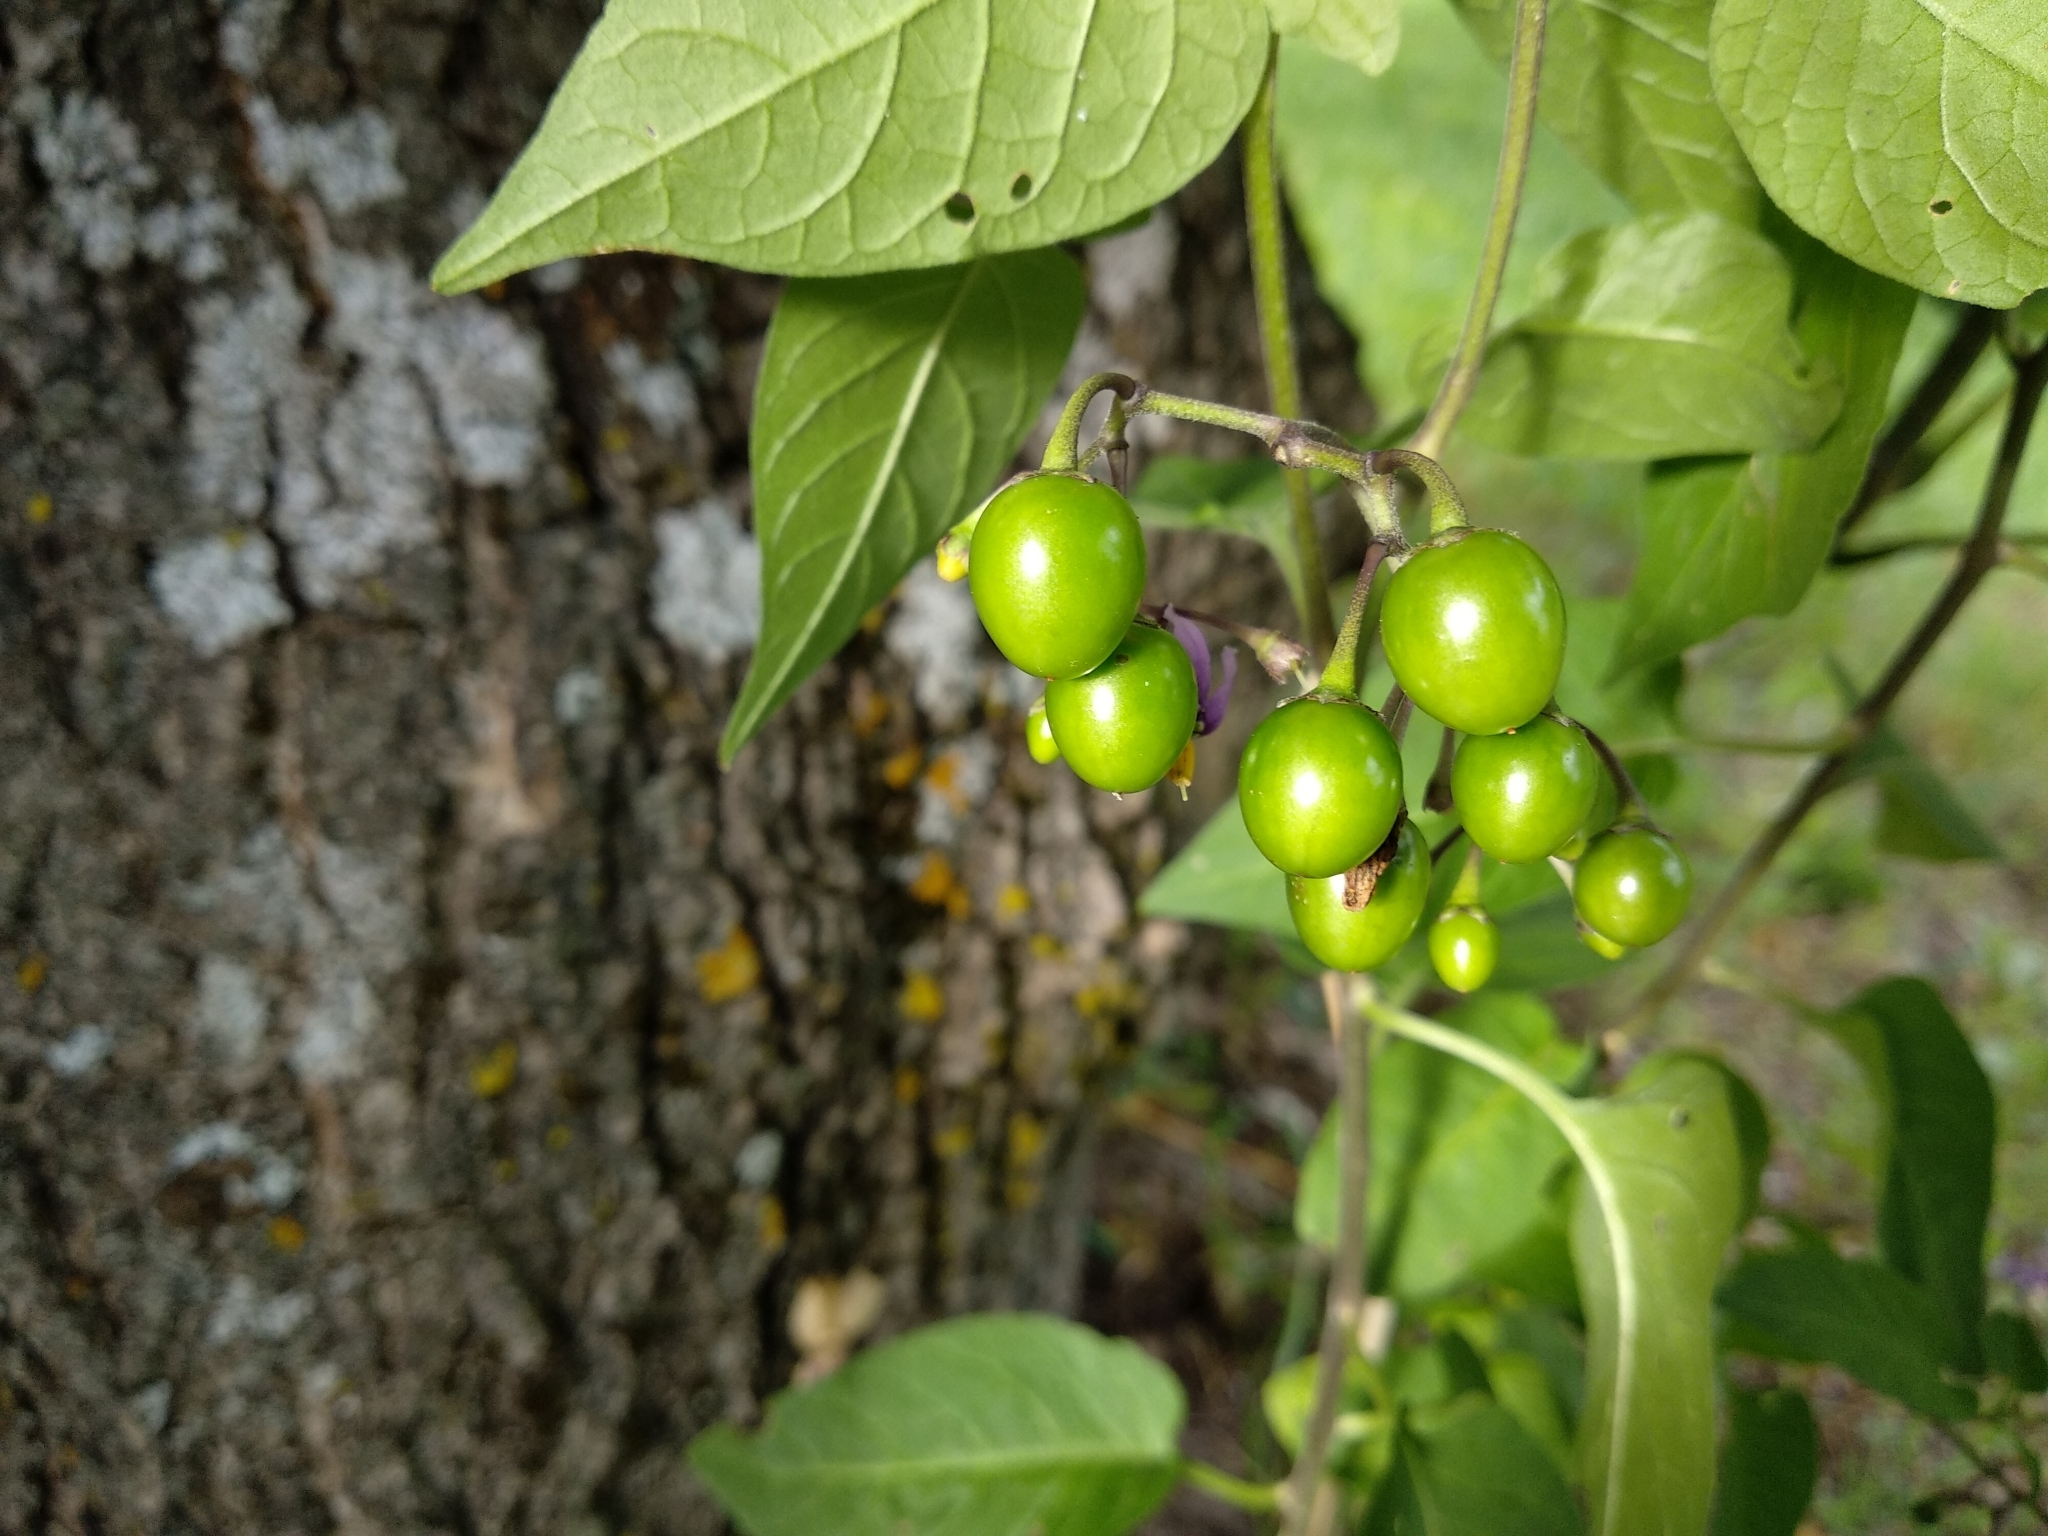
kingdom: Plantae
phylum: Tracheophyta
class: Magnoliopsida
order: Solanales
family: Solanaceae
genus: Solanum
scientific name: Solanum dulcamara
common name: Climbing nightshade
